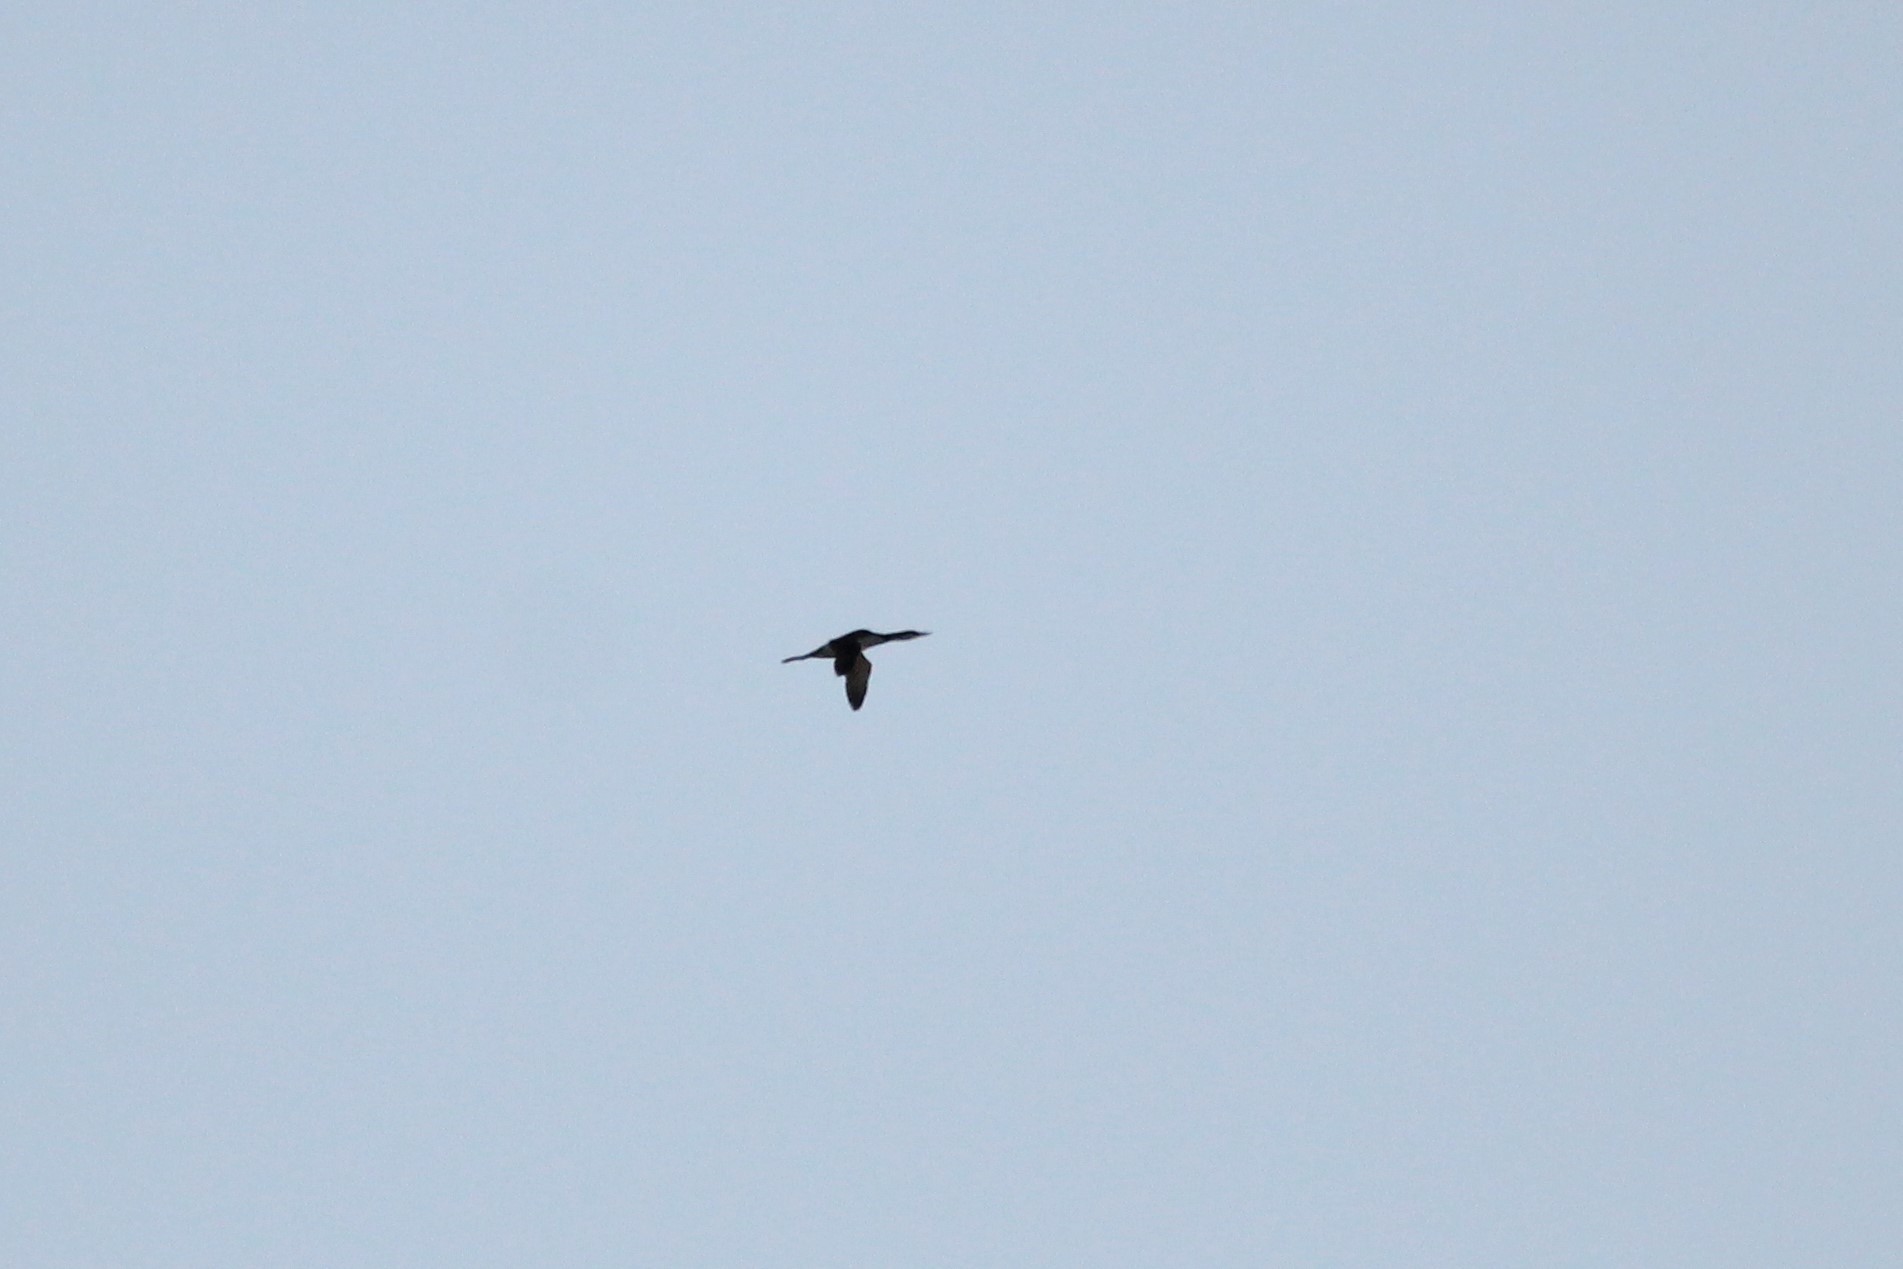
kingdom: Animalia
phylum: Chordata
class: Aves
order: Gaviiformes
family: Gaviidae
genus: Gavia
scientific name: Gavia immer
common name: Common loon
